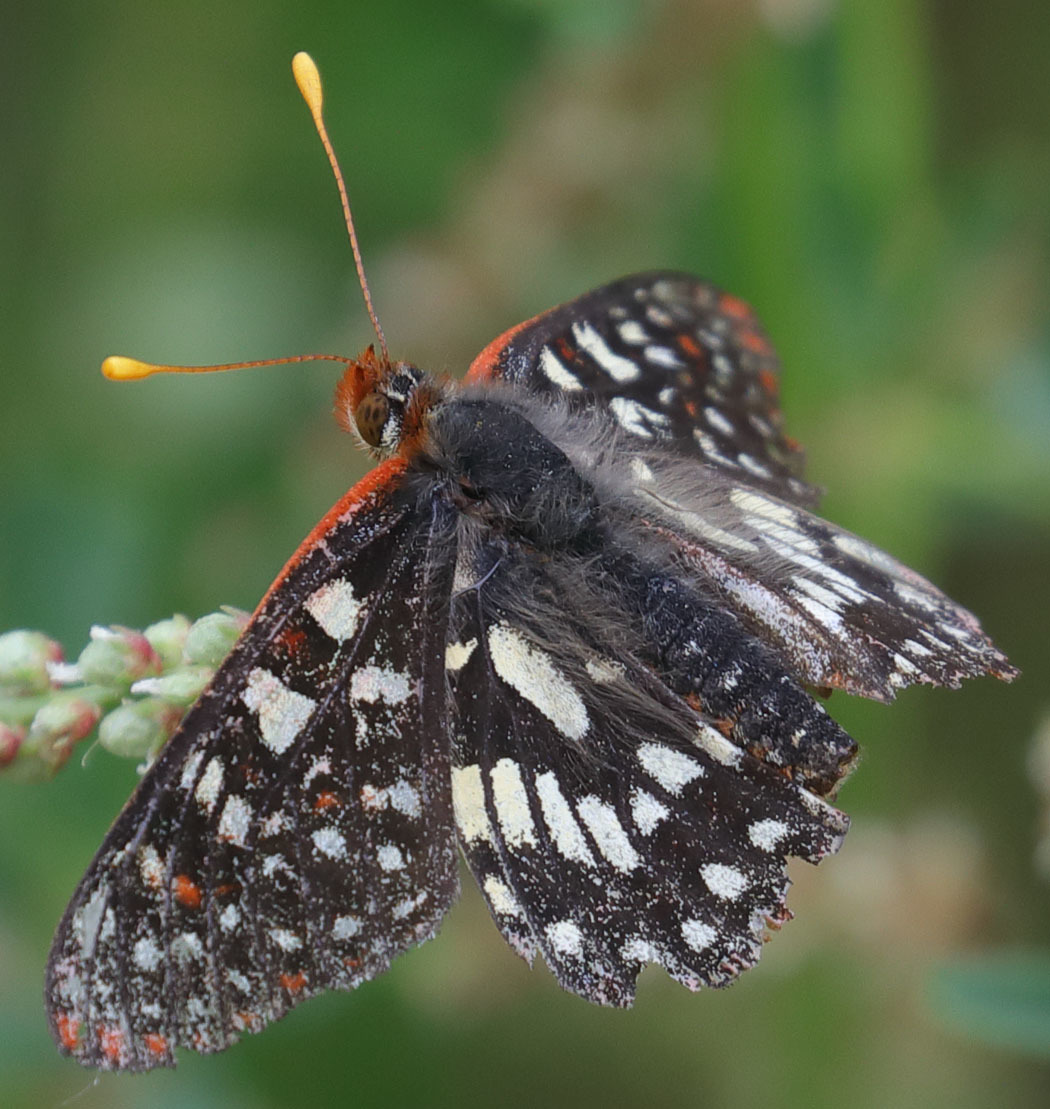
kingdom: Animalia
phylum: Arthropoda
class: Insecta
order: Lepidoptera
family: Nymphalidae
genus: Occidryas
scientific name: Occidryas chalcedona
